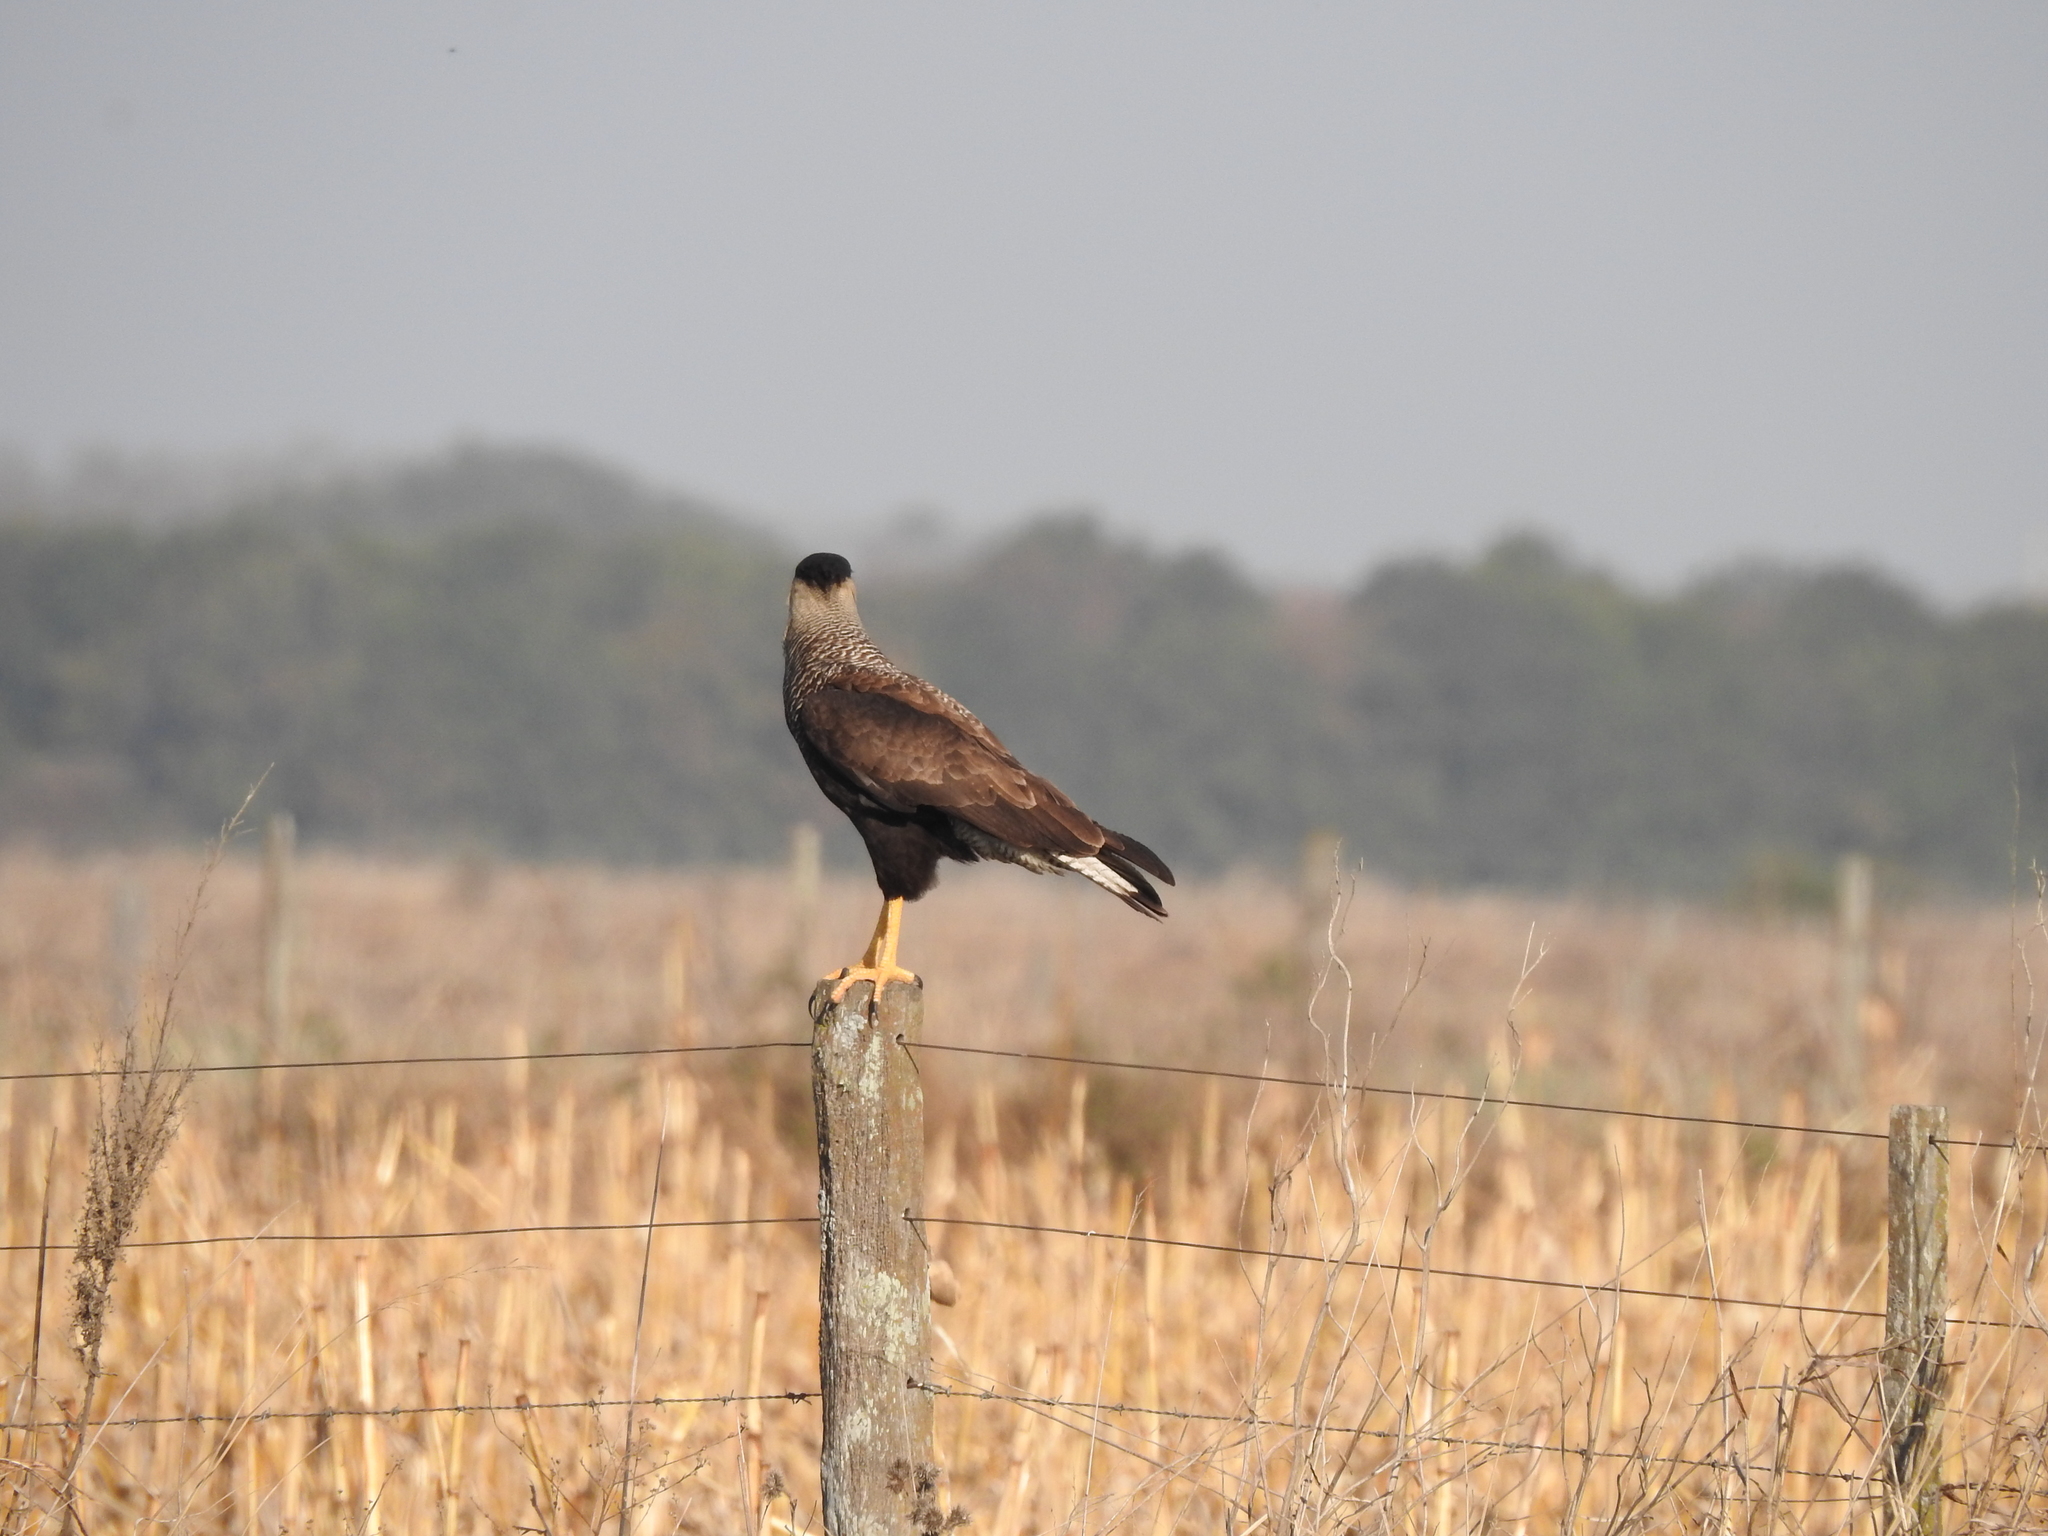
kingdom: Animalia
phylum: Chordata
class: Aves
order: Falconiformes
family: Falconidae
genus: Caracara
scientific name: Caracara plancus
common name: Southern caracara
